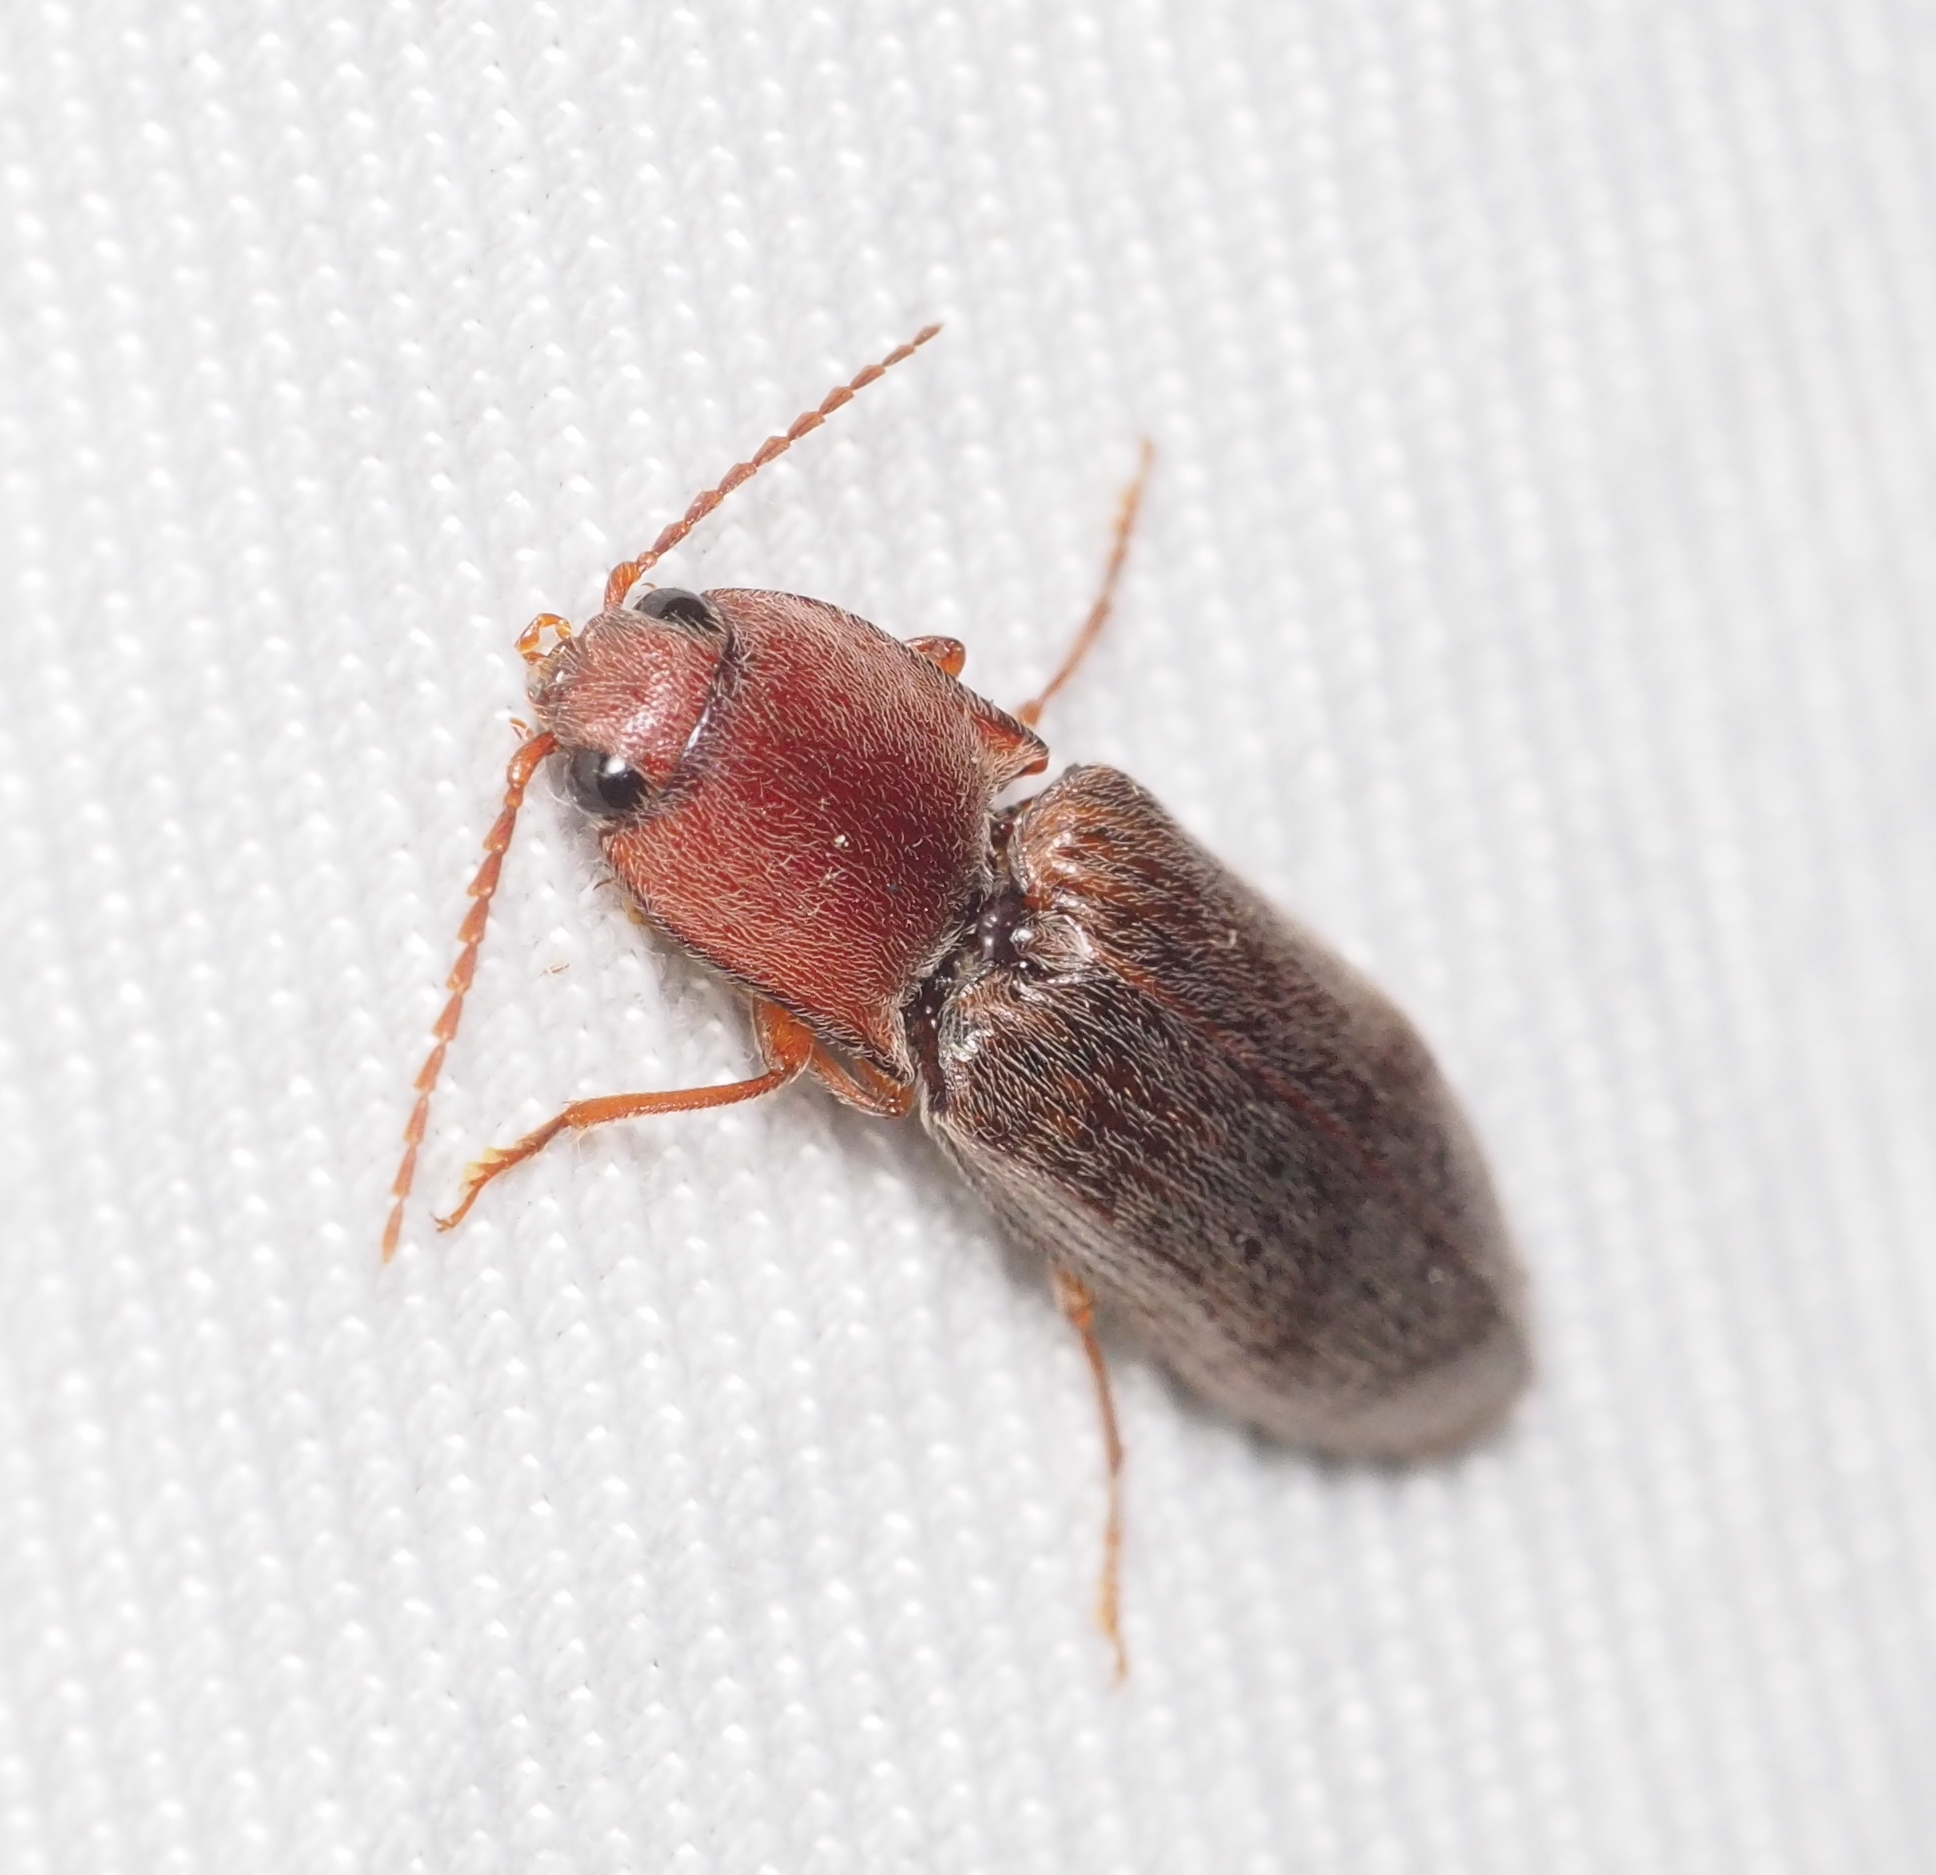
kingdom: Animalia
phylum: Arthropoda
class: Insecta
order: Coleoptera
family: Elateridae
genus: Stenagostus
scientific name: Stenagostus rhombeus
